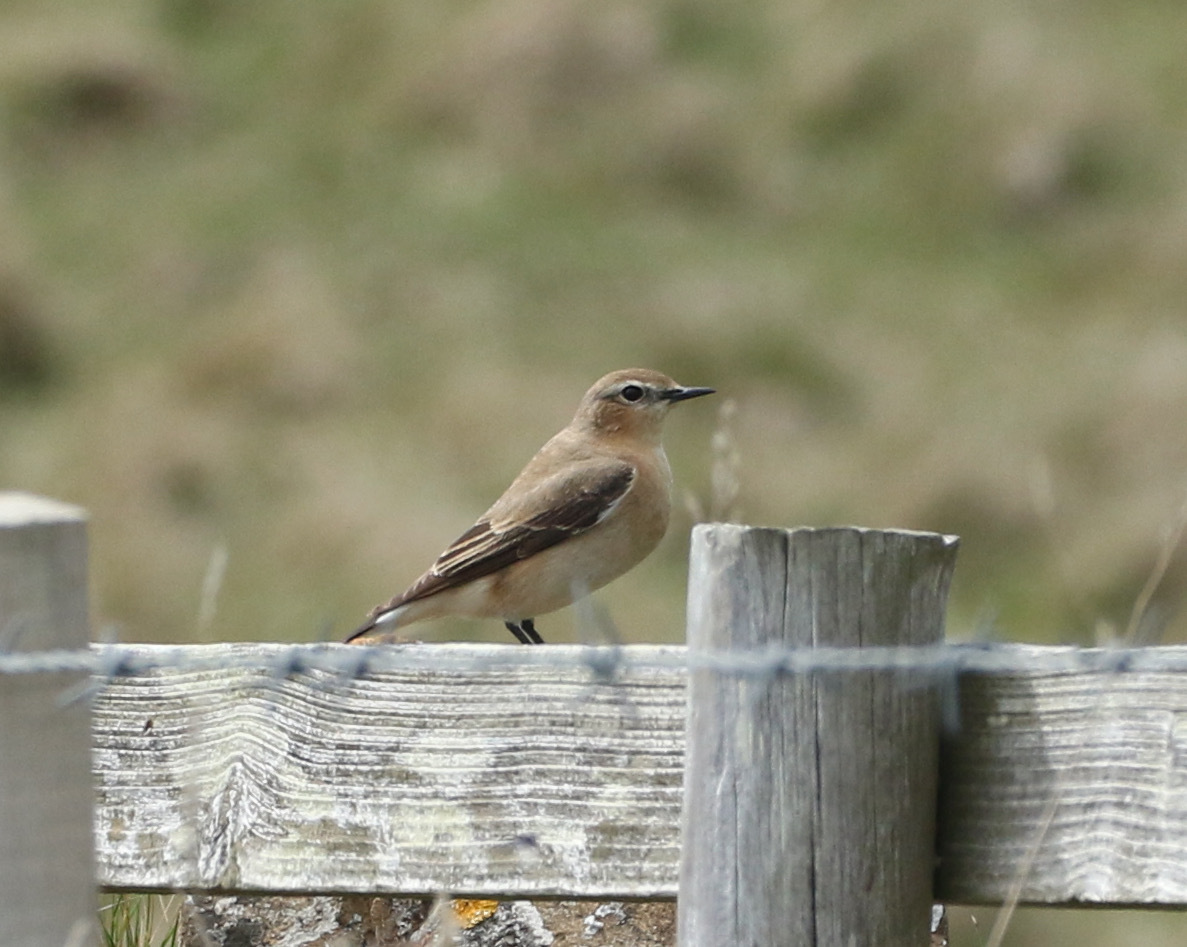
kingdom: Animalia
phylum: Chordata
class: Aves
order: Passeriformes
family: Muscicapidae
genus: Oenanthe
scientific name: Oenanthe oenanthe
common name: Northern wheatear
